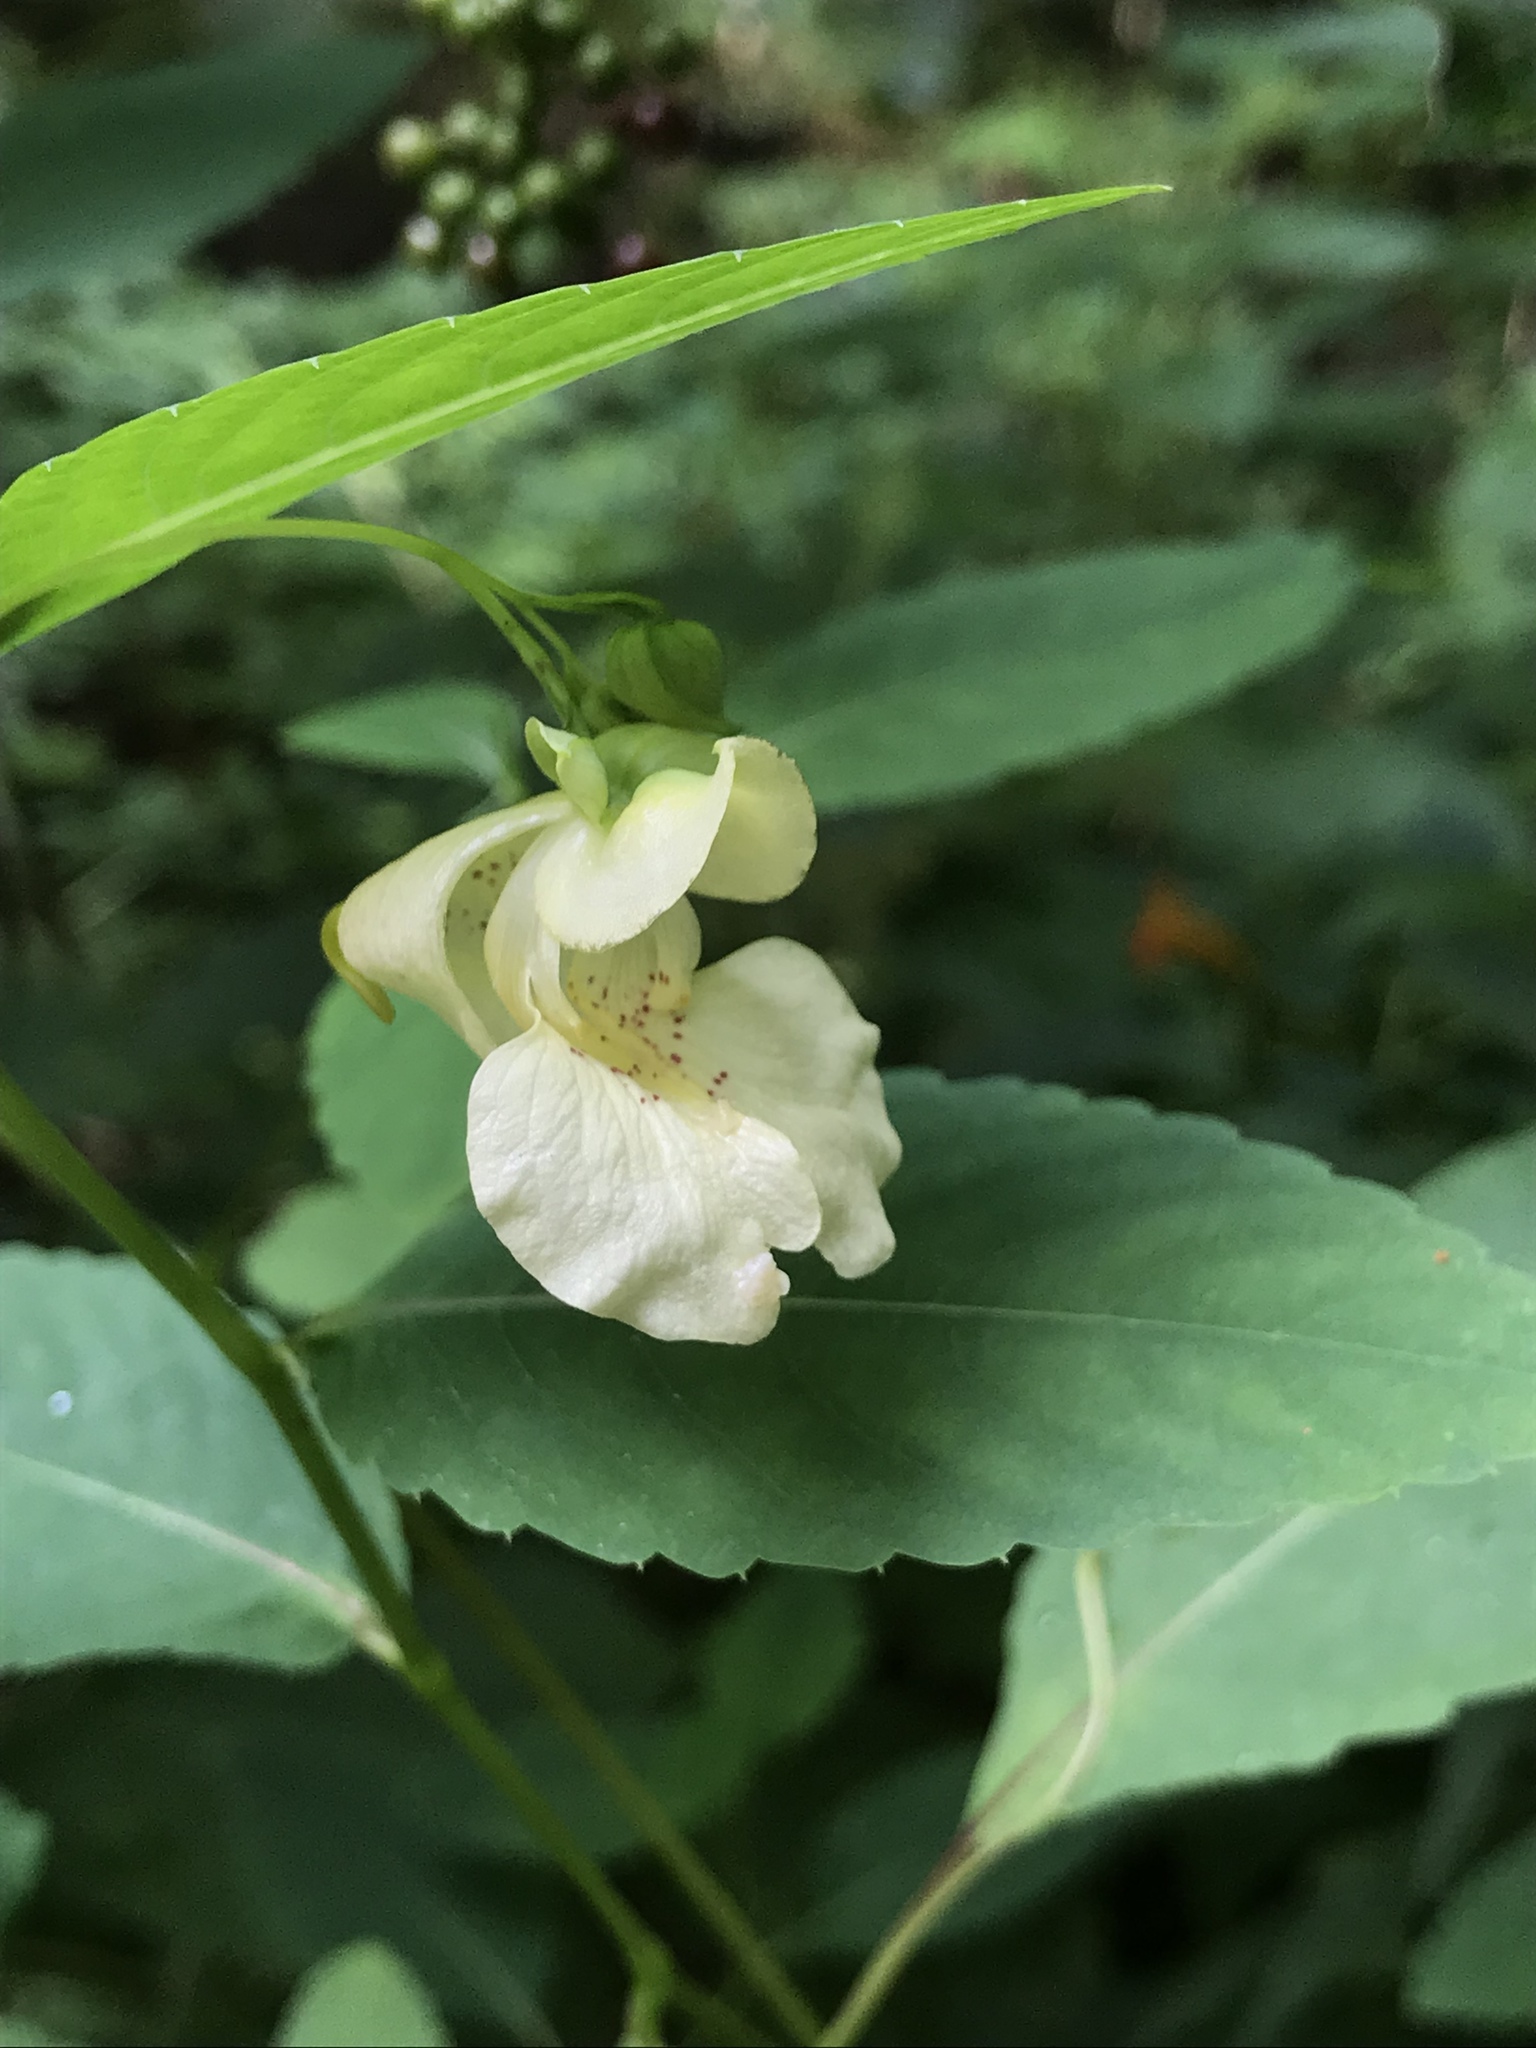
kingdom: Plantae
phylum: Tracheophyta
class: Magnoliopsida
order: Ericales
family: Balsaminaceae
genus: Impatiens
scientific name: Impatiens pallida
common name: Pale snapweed
